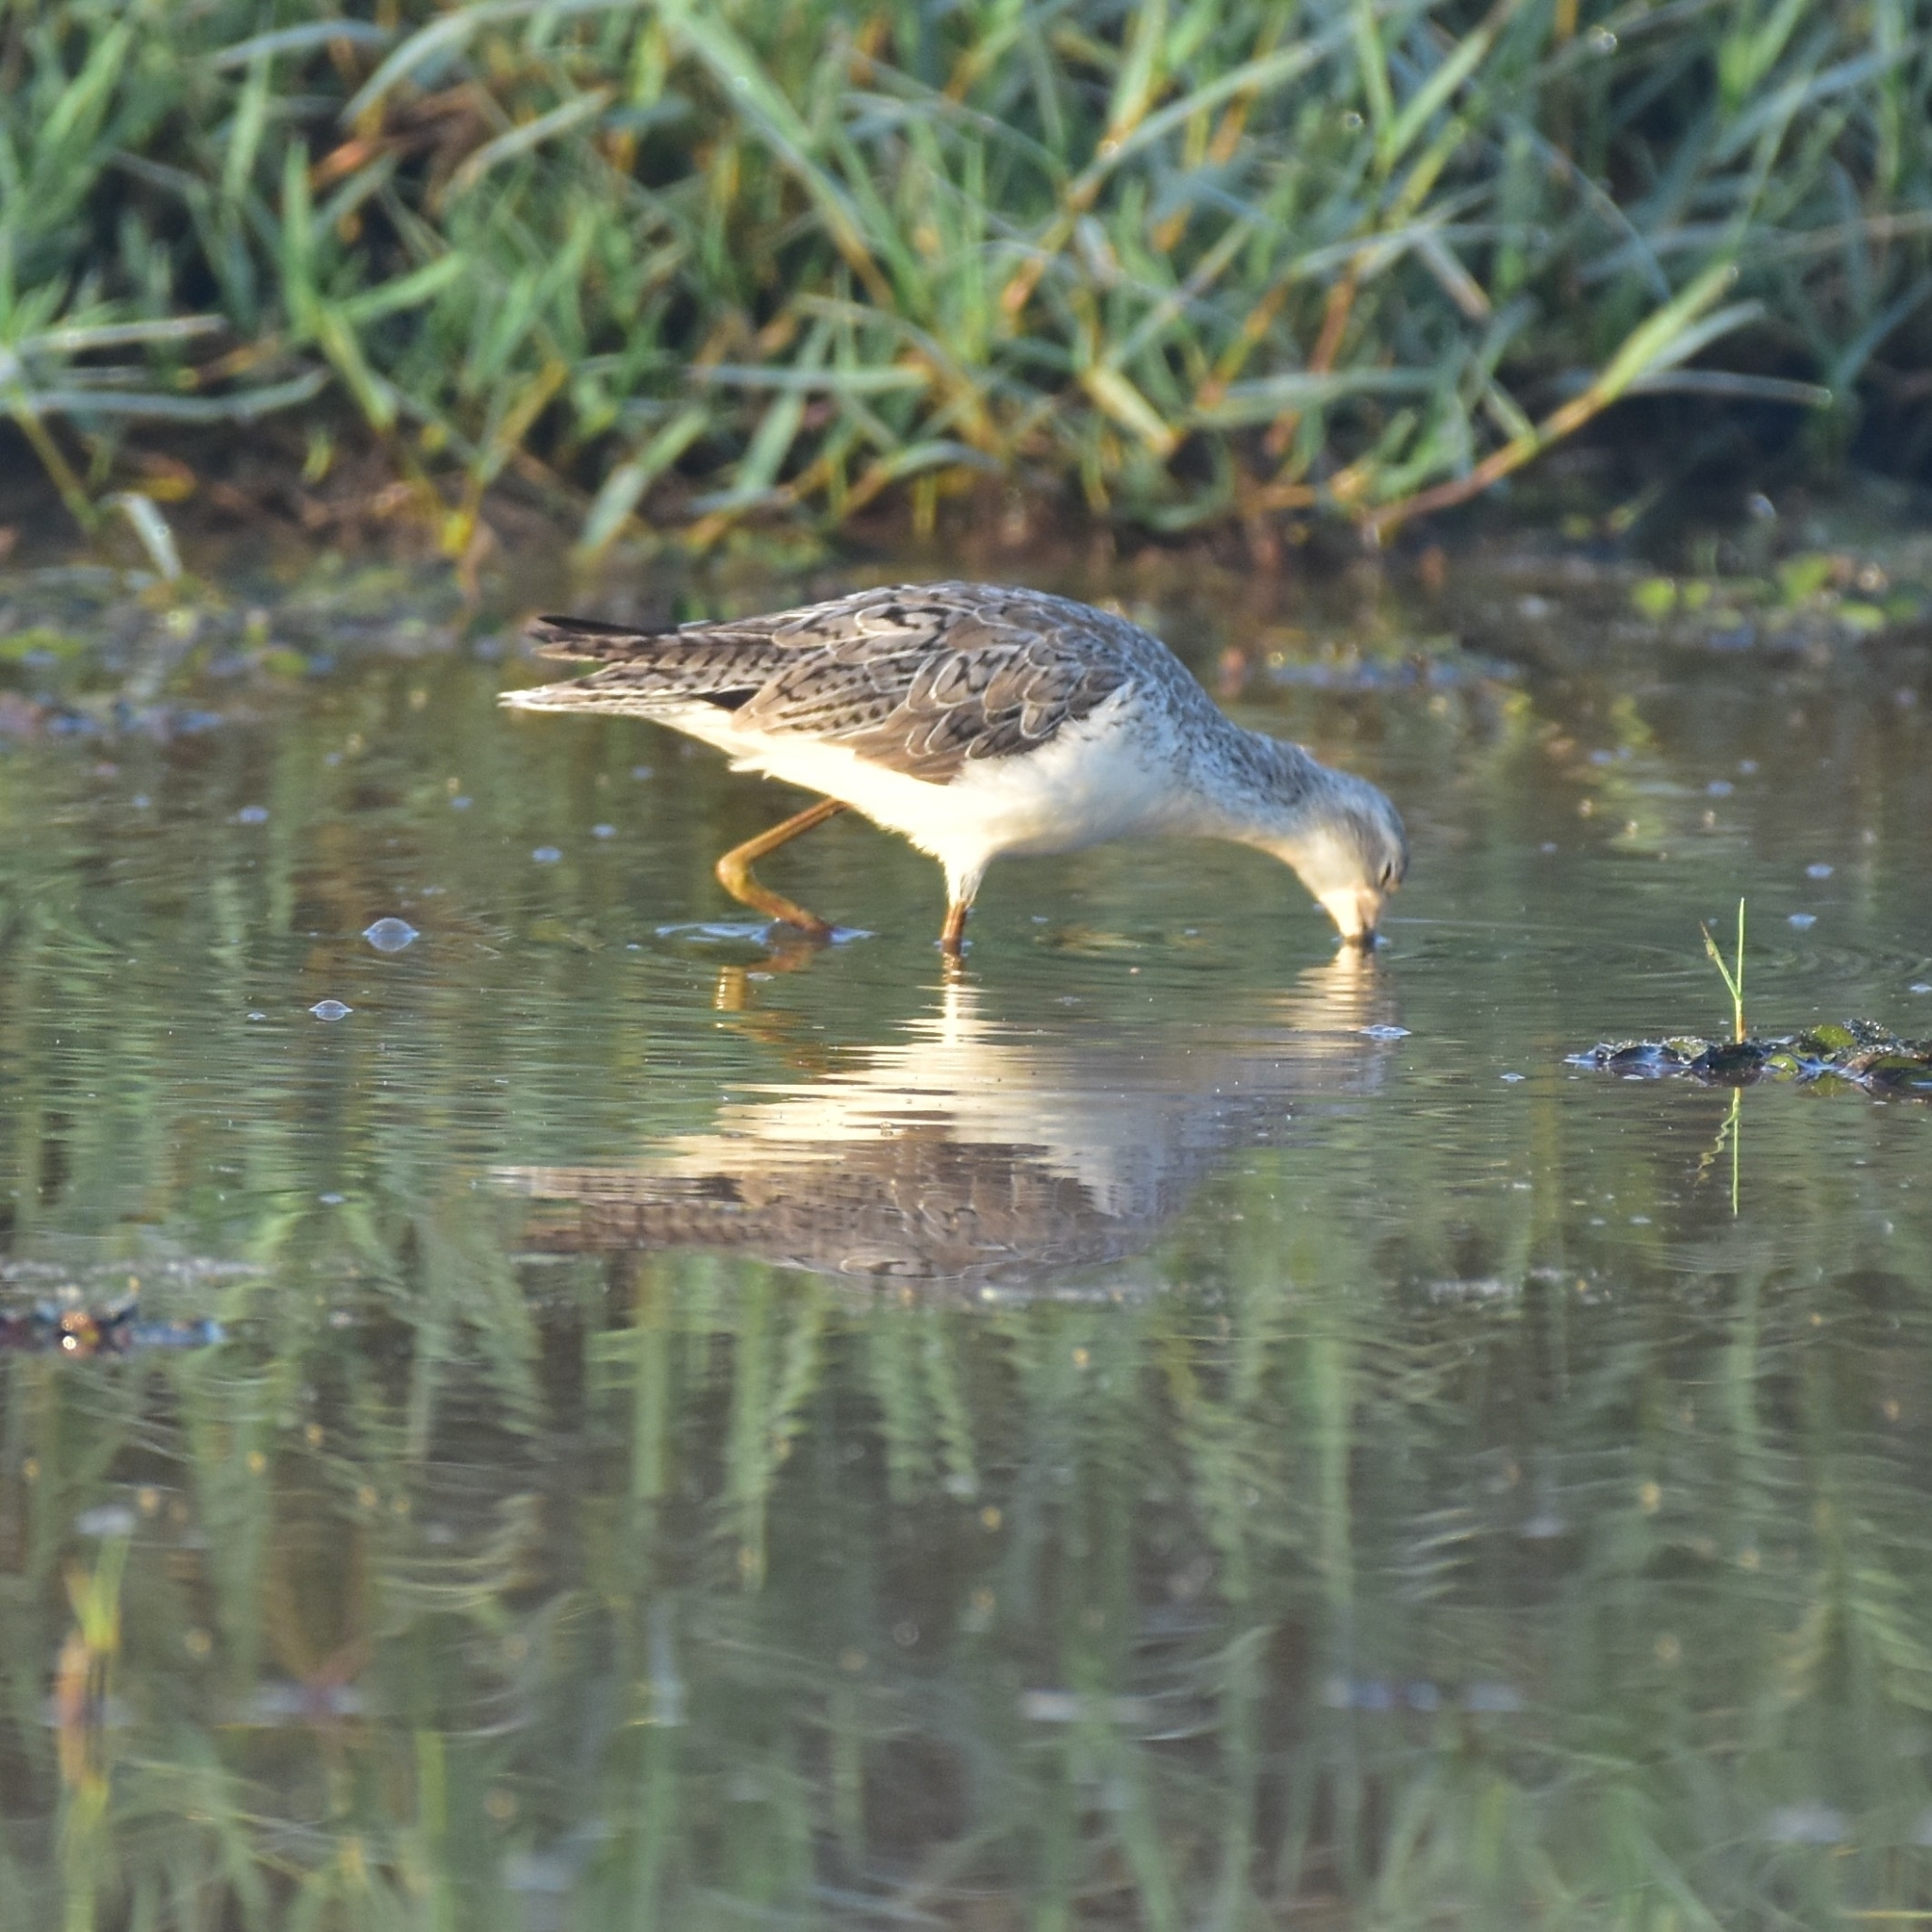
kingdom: Animalia
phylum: Chordata
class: Aves
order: Charadriiformes
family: Scolopacidae
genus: Tringa
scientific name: Tringa stagnatilis
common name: Marsh sandpiper
